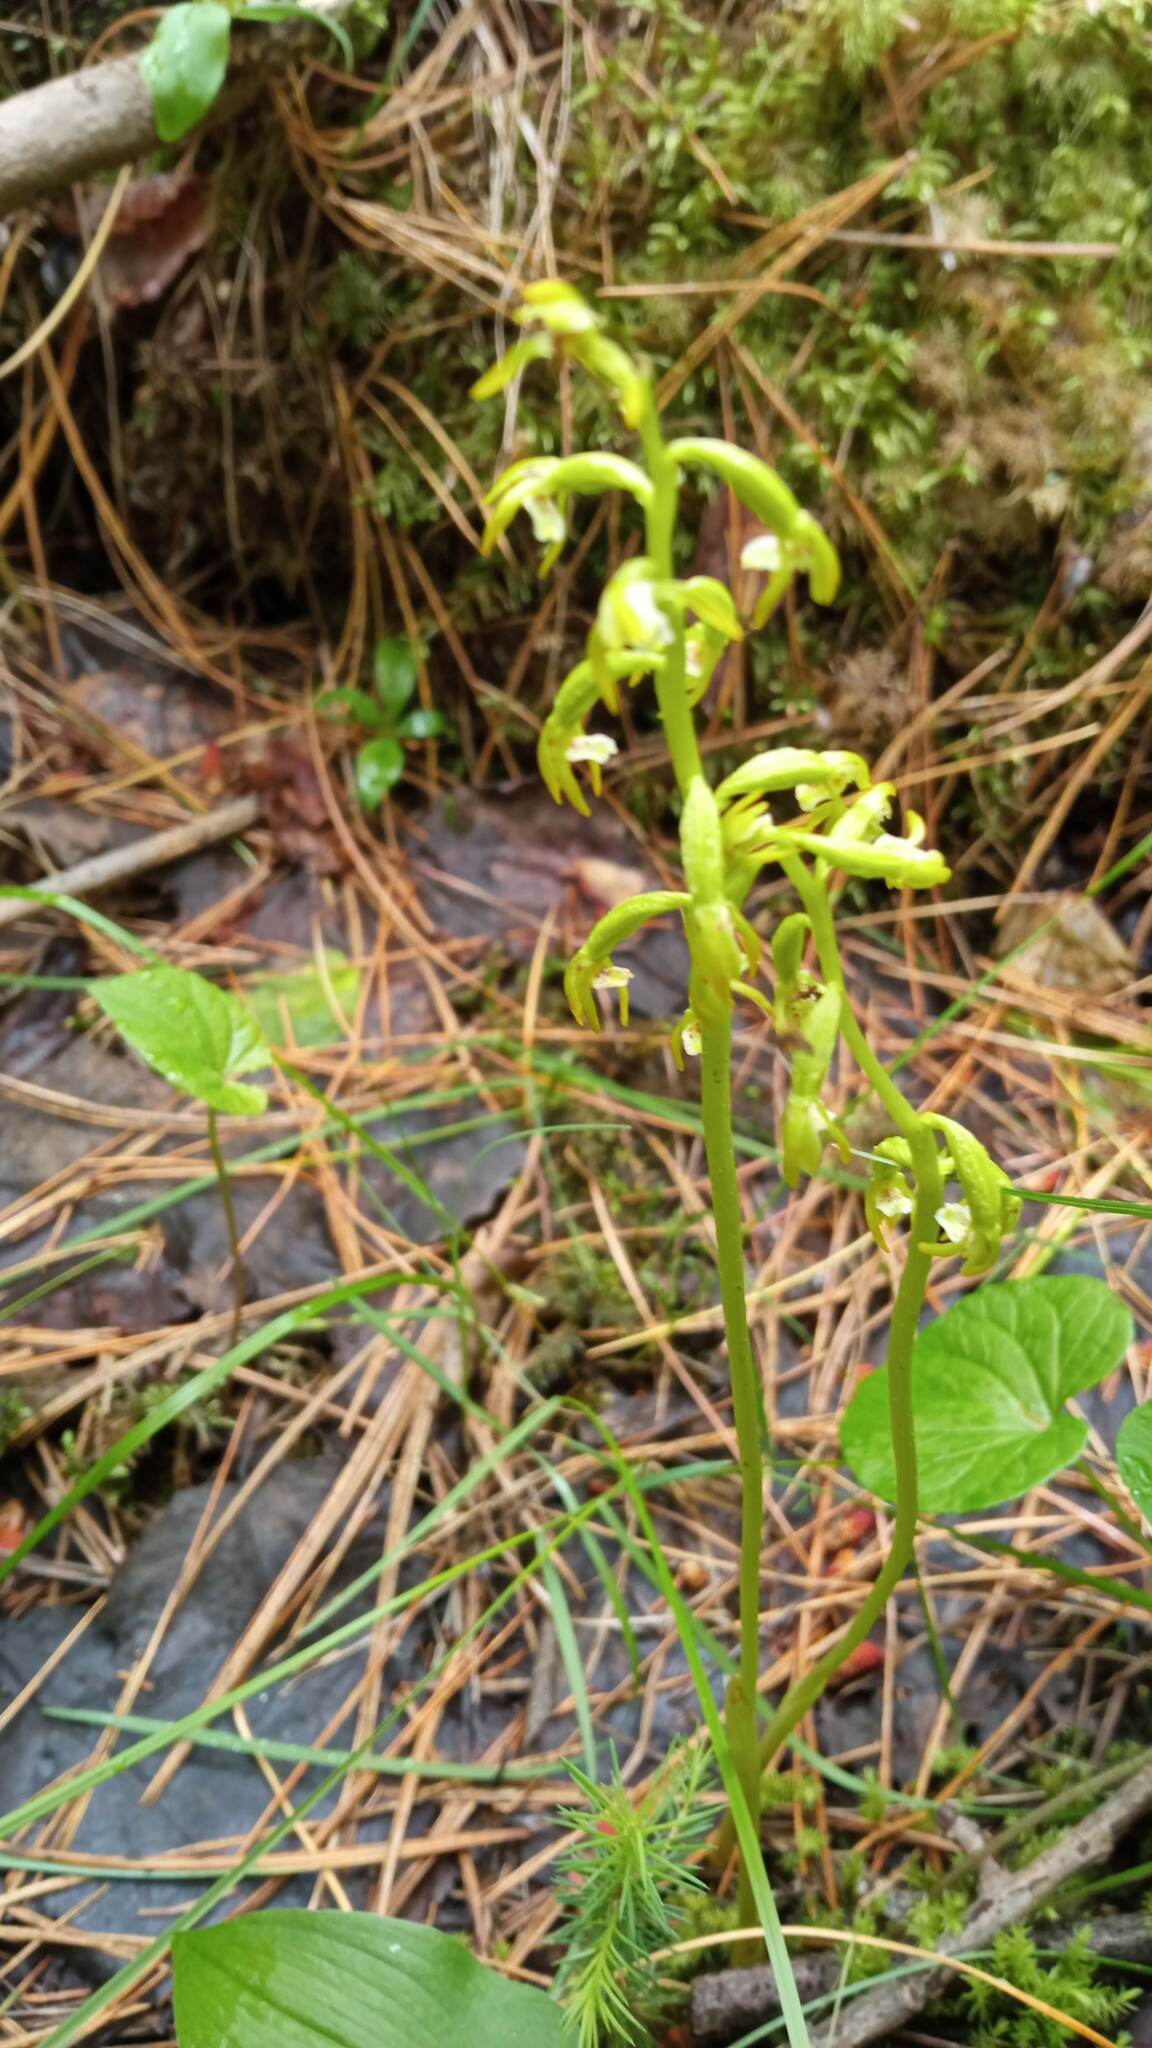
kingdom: Plantae
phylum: Tracheophyta
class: Liliopsida
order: Asparagales
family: Orchidaceae
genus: Corallorhiza
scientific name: Corallorhiza trifida
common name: Yellow coralroot
